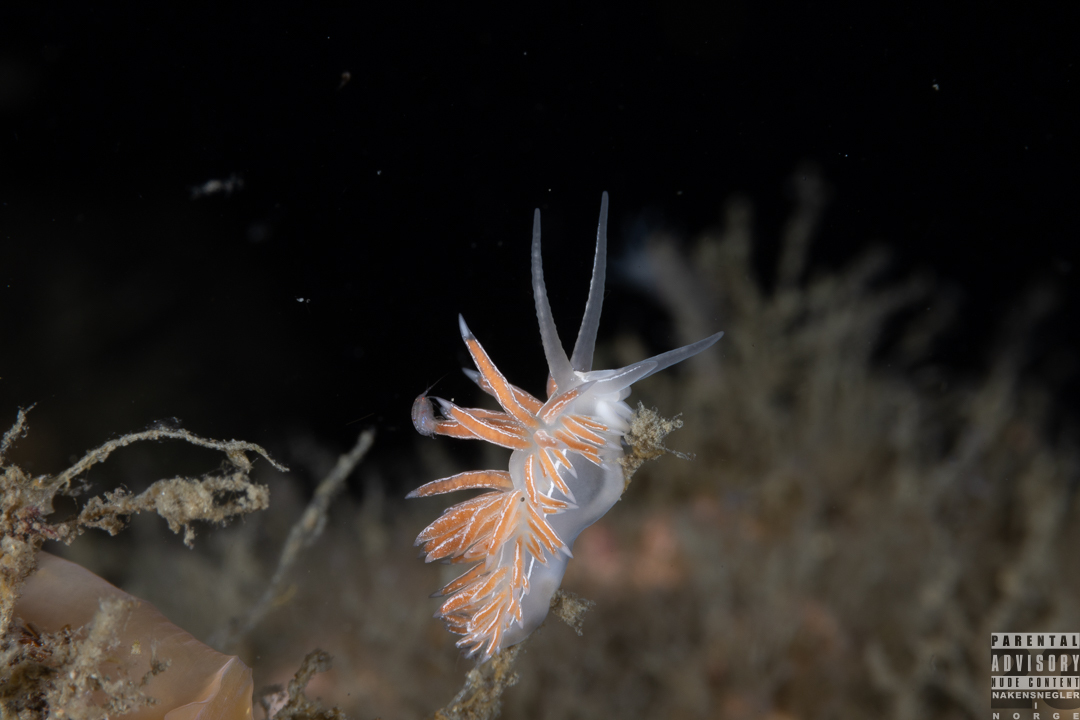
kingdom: Animalia
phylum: Mollusca
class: Gastropoda
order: Nudibranchia
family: Coryphellidae
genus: Coryphella
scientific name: Coryphella chriskaugei
